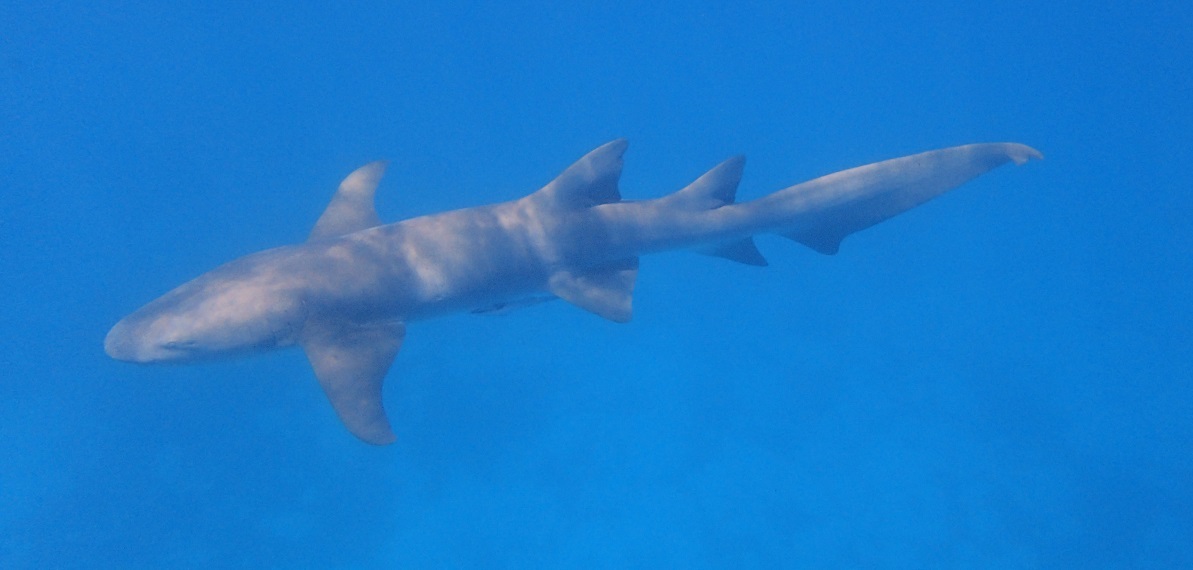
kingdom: Animalia
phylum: Chordata
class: Elasmobranchii
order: Orectolobiformes
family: Ginglymostomatidae
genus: Nebrius
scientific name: Nebrius ferrugineus
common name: Tawny nurse shark
